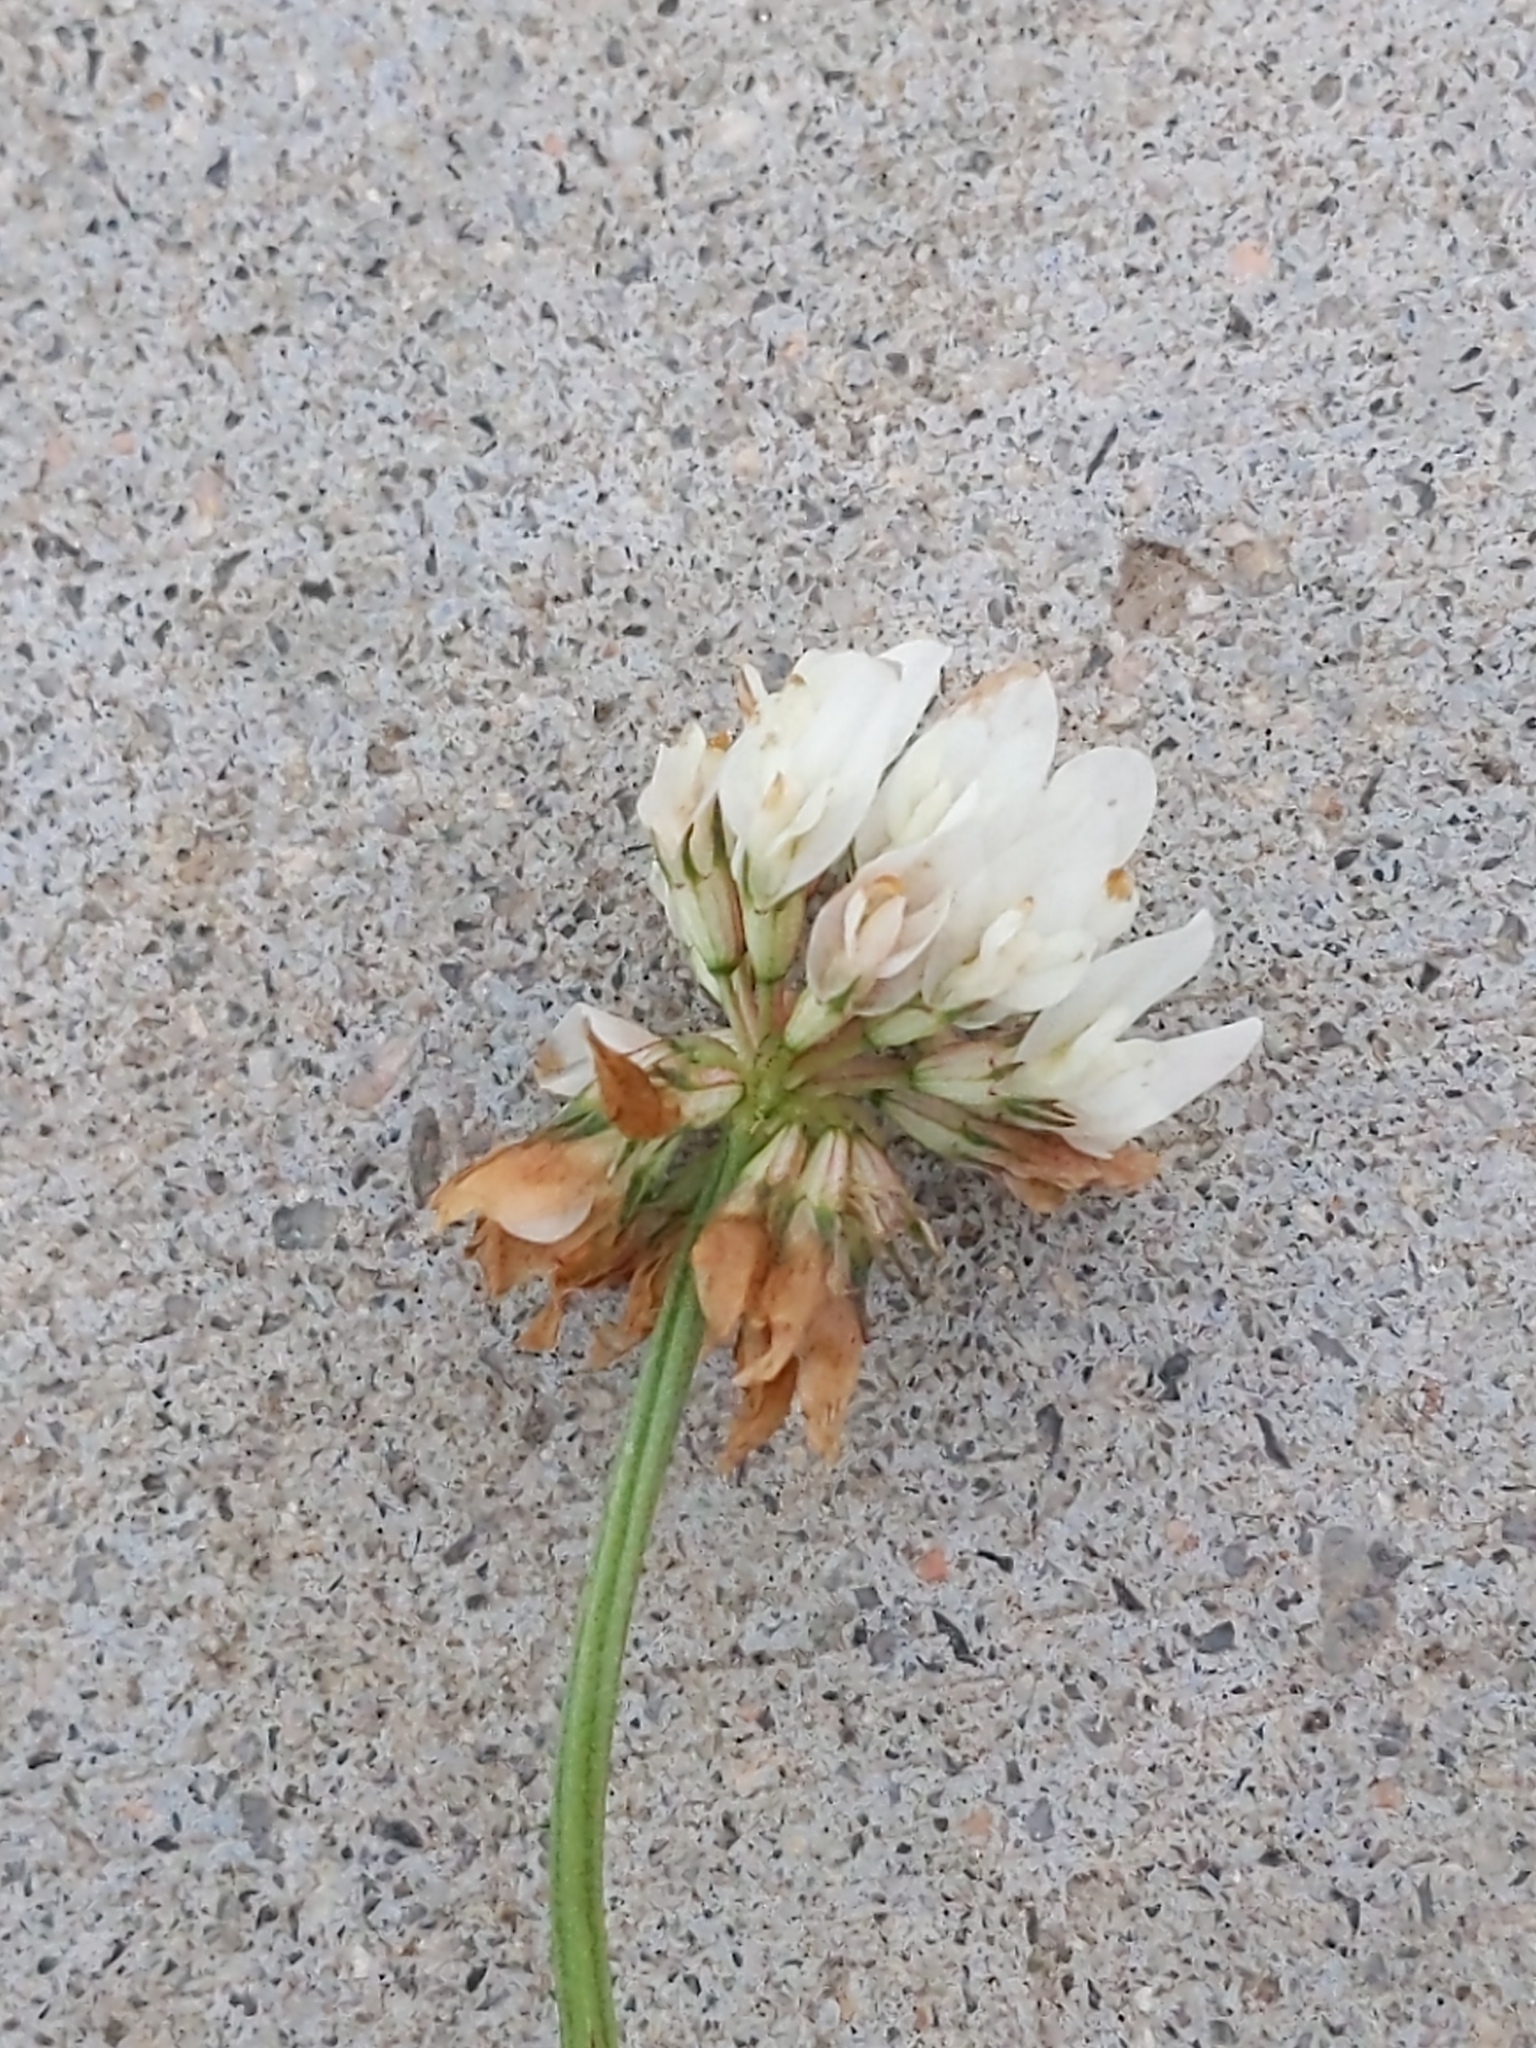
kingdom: Plantae
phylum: Tracheophyta
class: Magnoliopsida
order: Fabales
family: Fabaceae
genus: Trifolium
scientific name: Trifolium repens
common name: White clover
